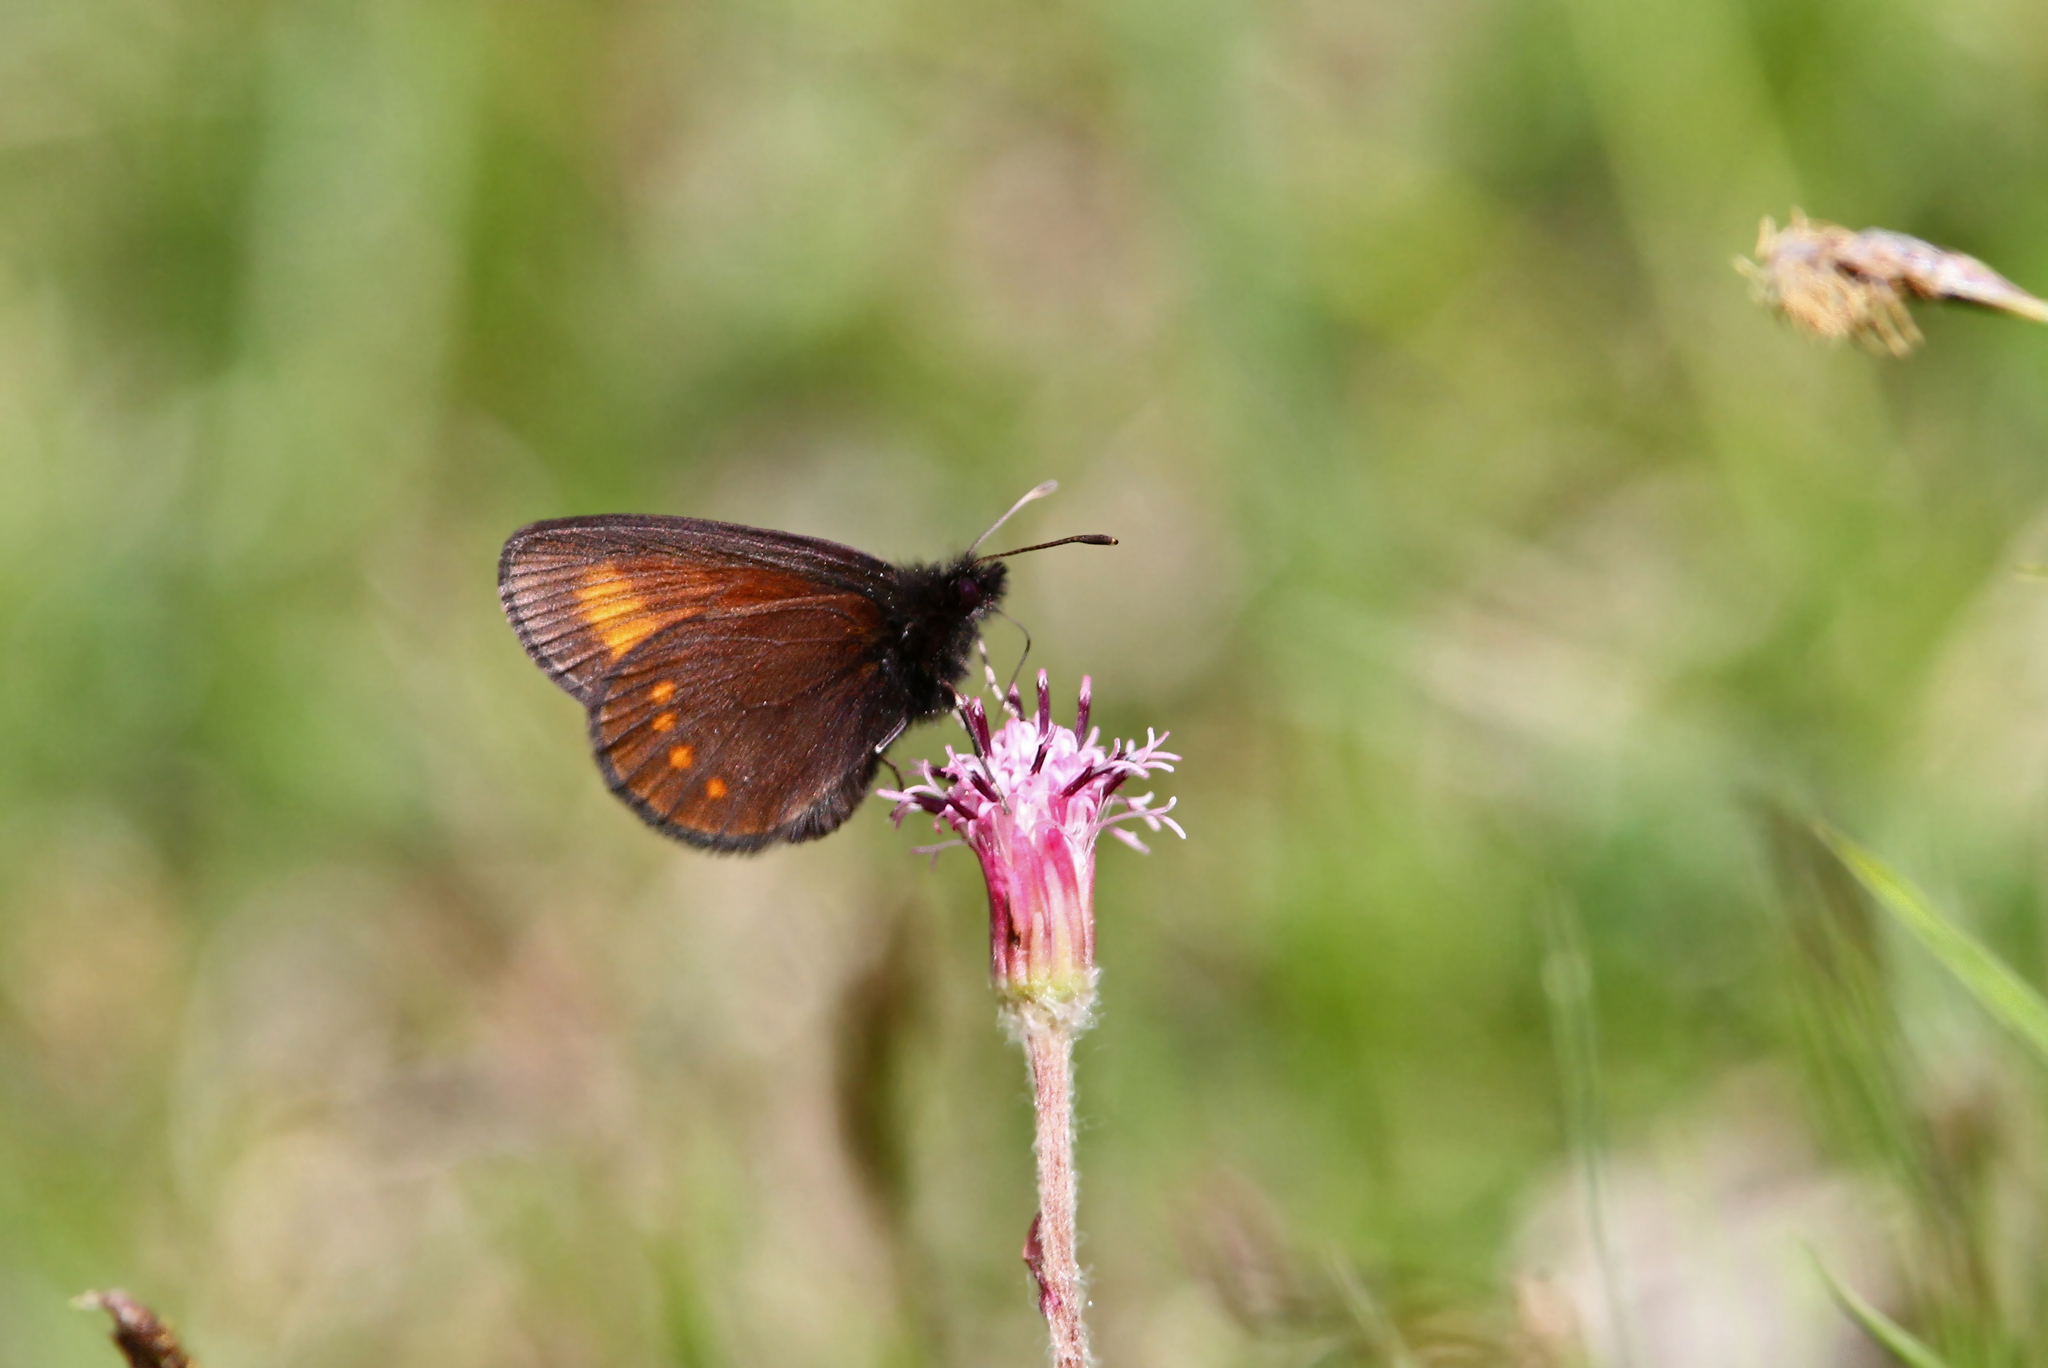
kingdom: Animalia
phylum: Arthropoda
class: Insecta
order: Lepidoptera
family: Nymphalidae
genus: Erebia
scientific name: Erebia pharte
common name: Blind ringlet
